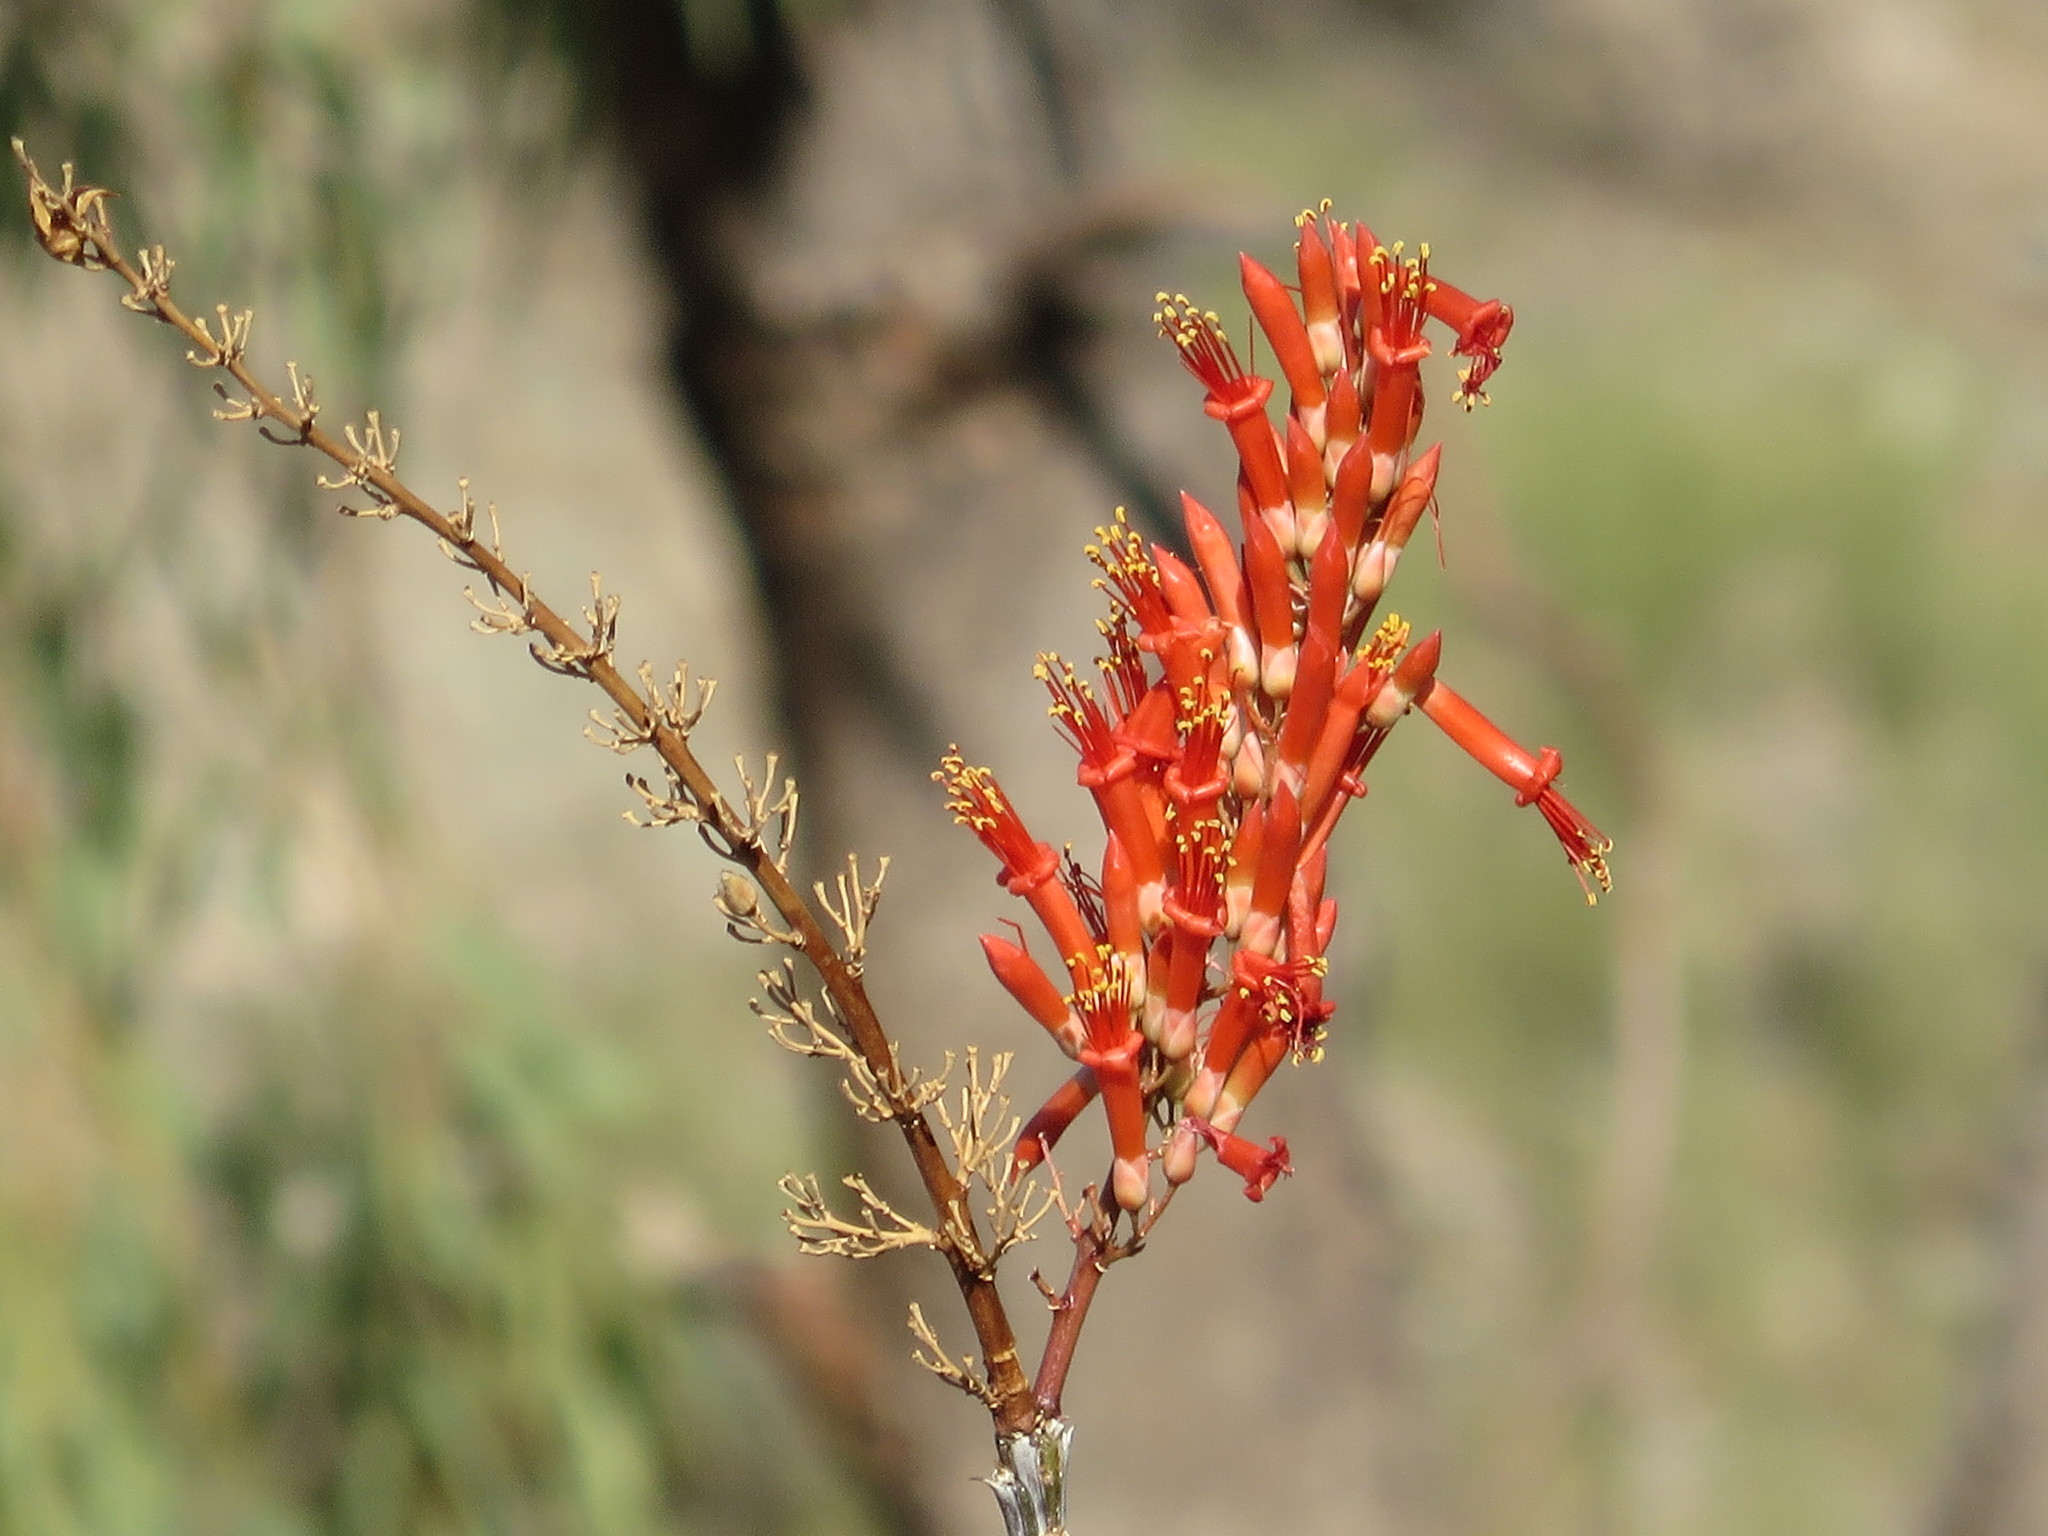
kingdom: Plantae
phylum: Tracheophyta
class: Magnoliopsida
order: Ericales
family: Fouquieriaceae
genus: Fouquieria
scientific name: Fouquieria splendens
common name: Vine-cactus
